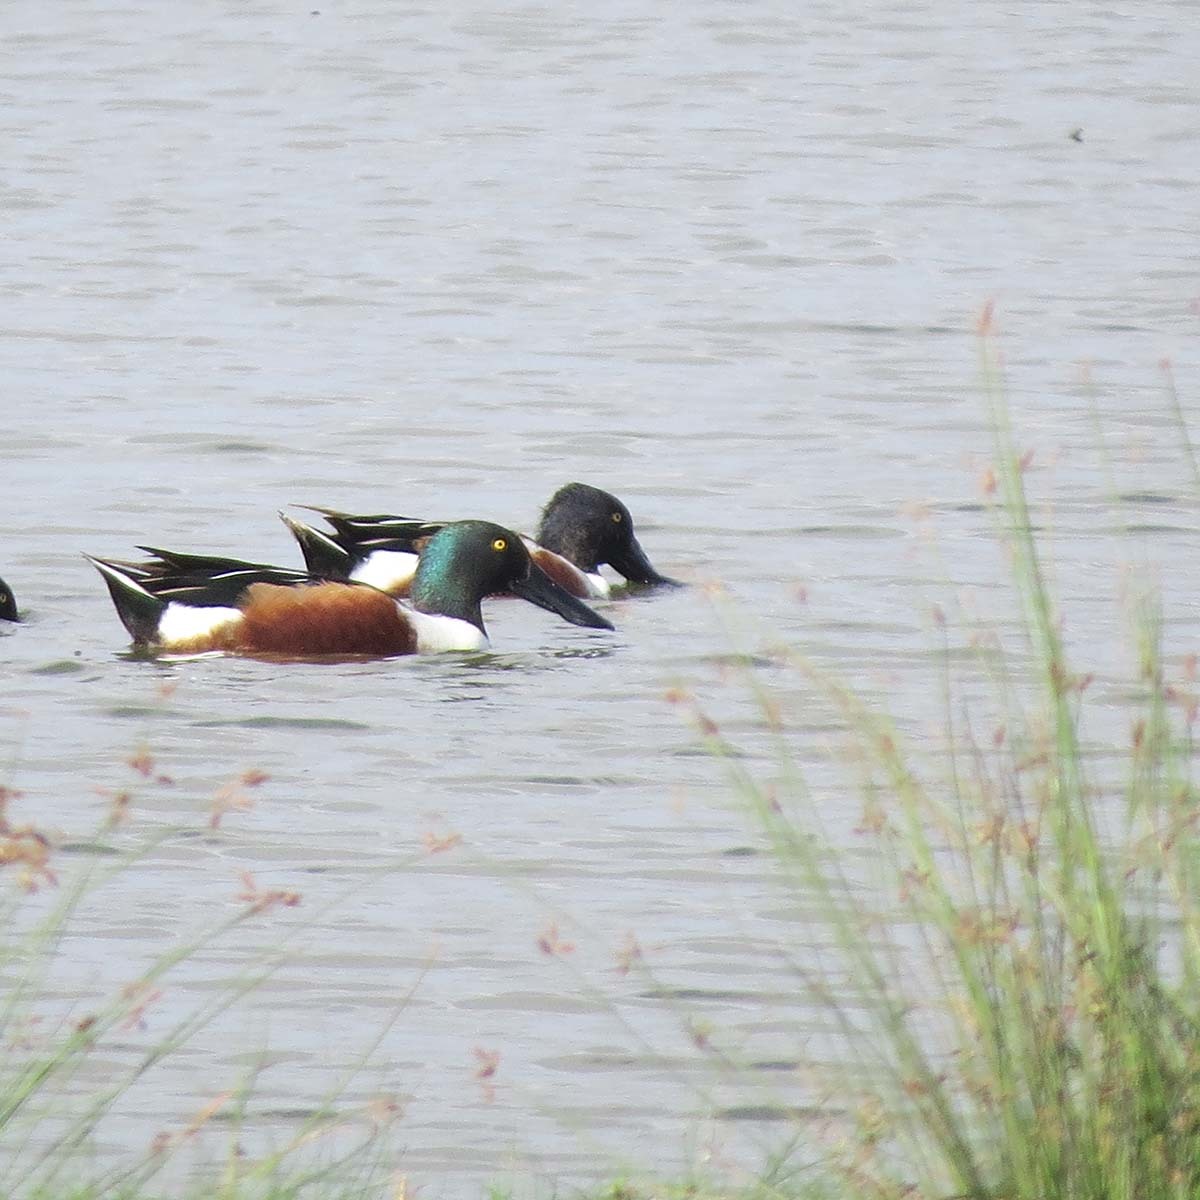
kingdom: Animalia
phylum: Chordata
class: Aves
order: Anseriformes
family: Anatidae
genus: Spatula
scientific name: Spatula clypeata
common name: Northern shoveler
